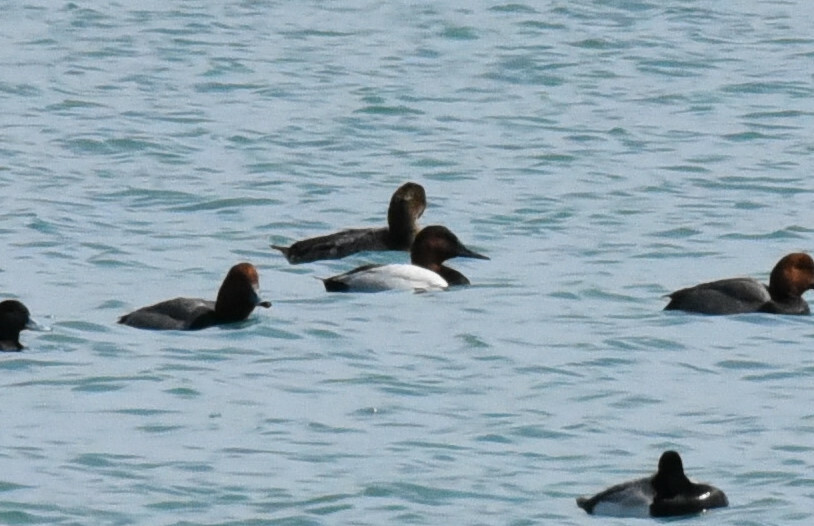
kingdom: Animalia
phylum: Chordata
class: Aves
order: Anseriformes
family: Anatidae
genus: Aythya
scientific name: Aythya valisineria
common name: Canvasback
